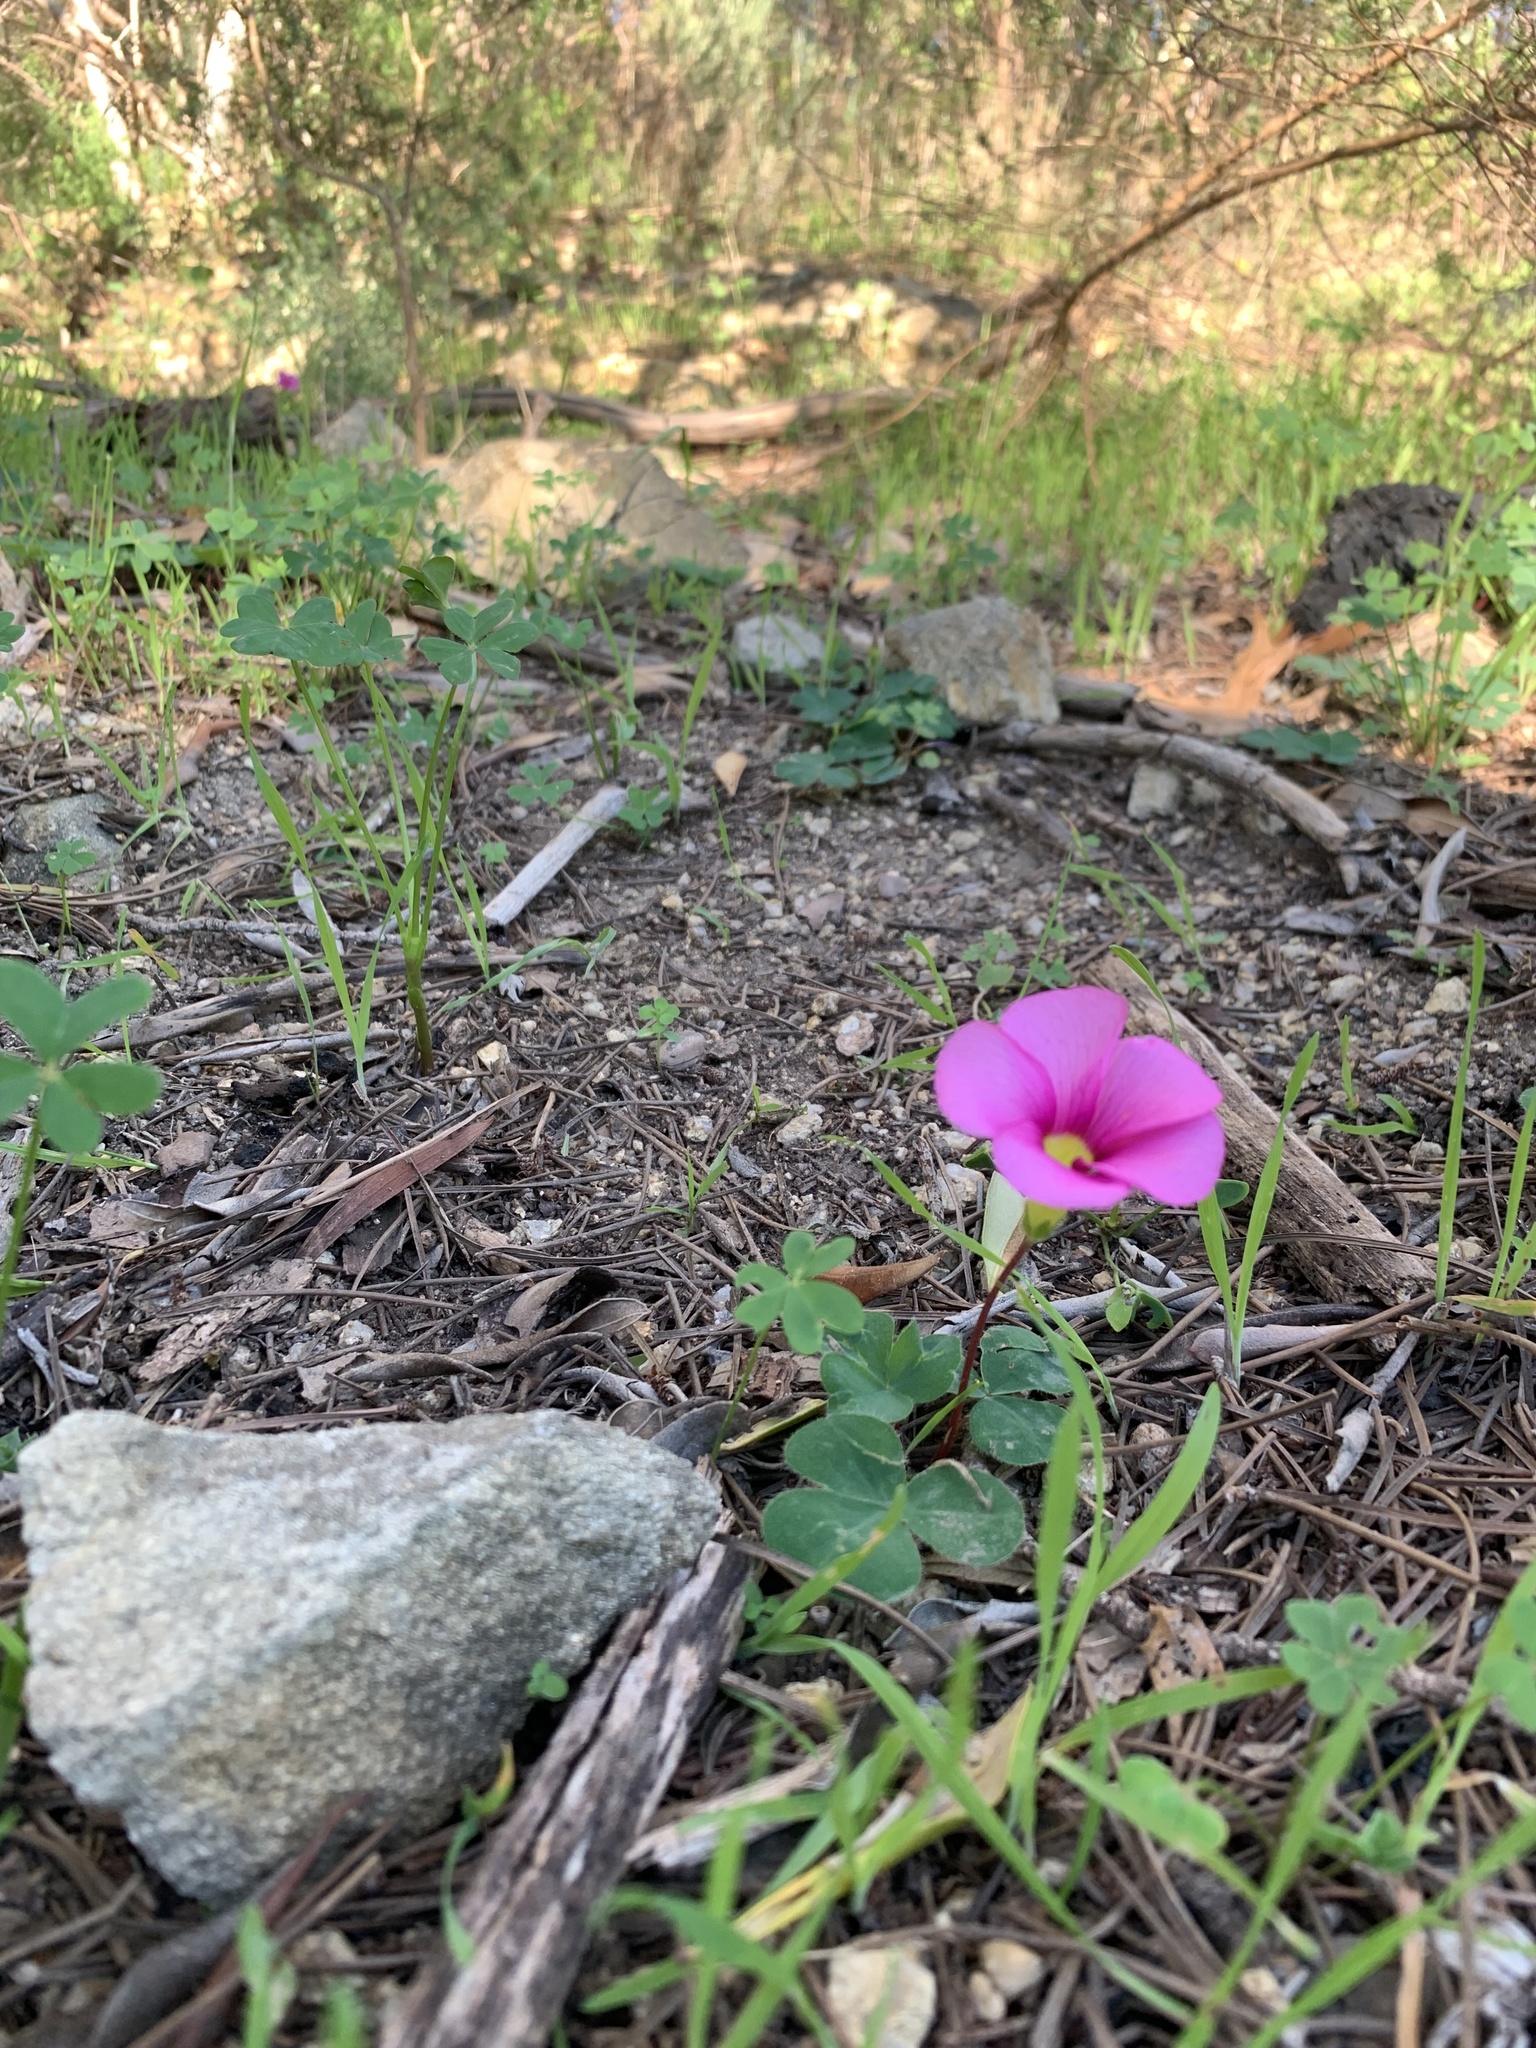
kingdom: Plantae
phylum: Tracheophyta
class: Magnoliopsida
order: Oxalidales
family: Oxalidaceae
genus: Oxalis
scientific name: Oxalis purpurea
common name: Purple woodsorrel
